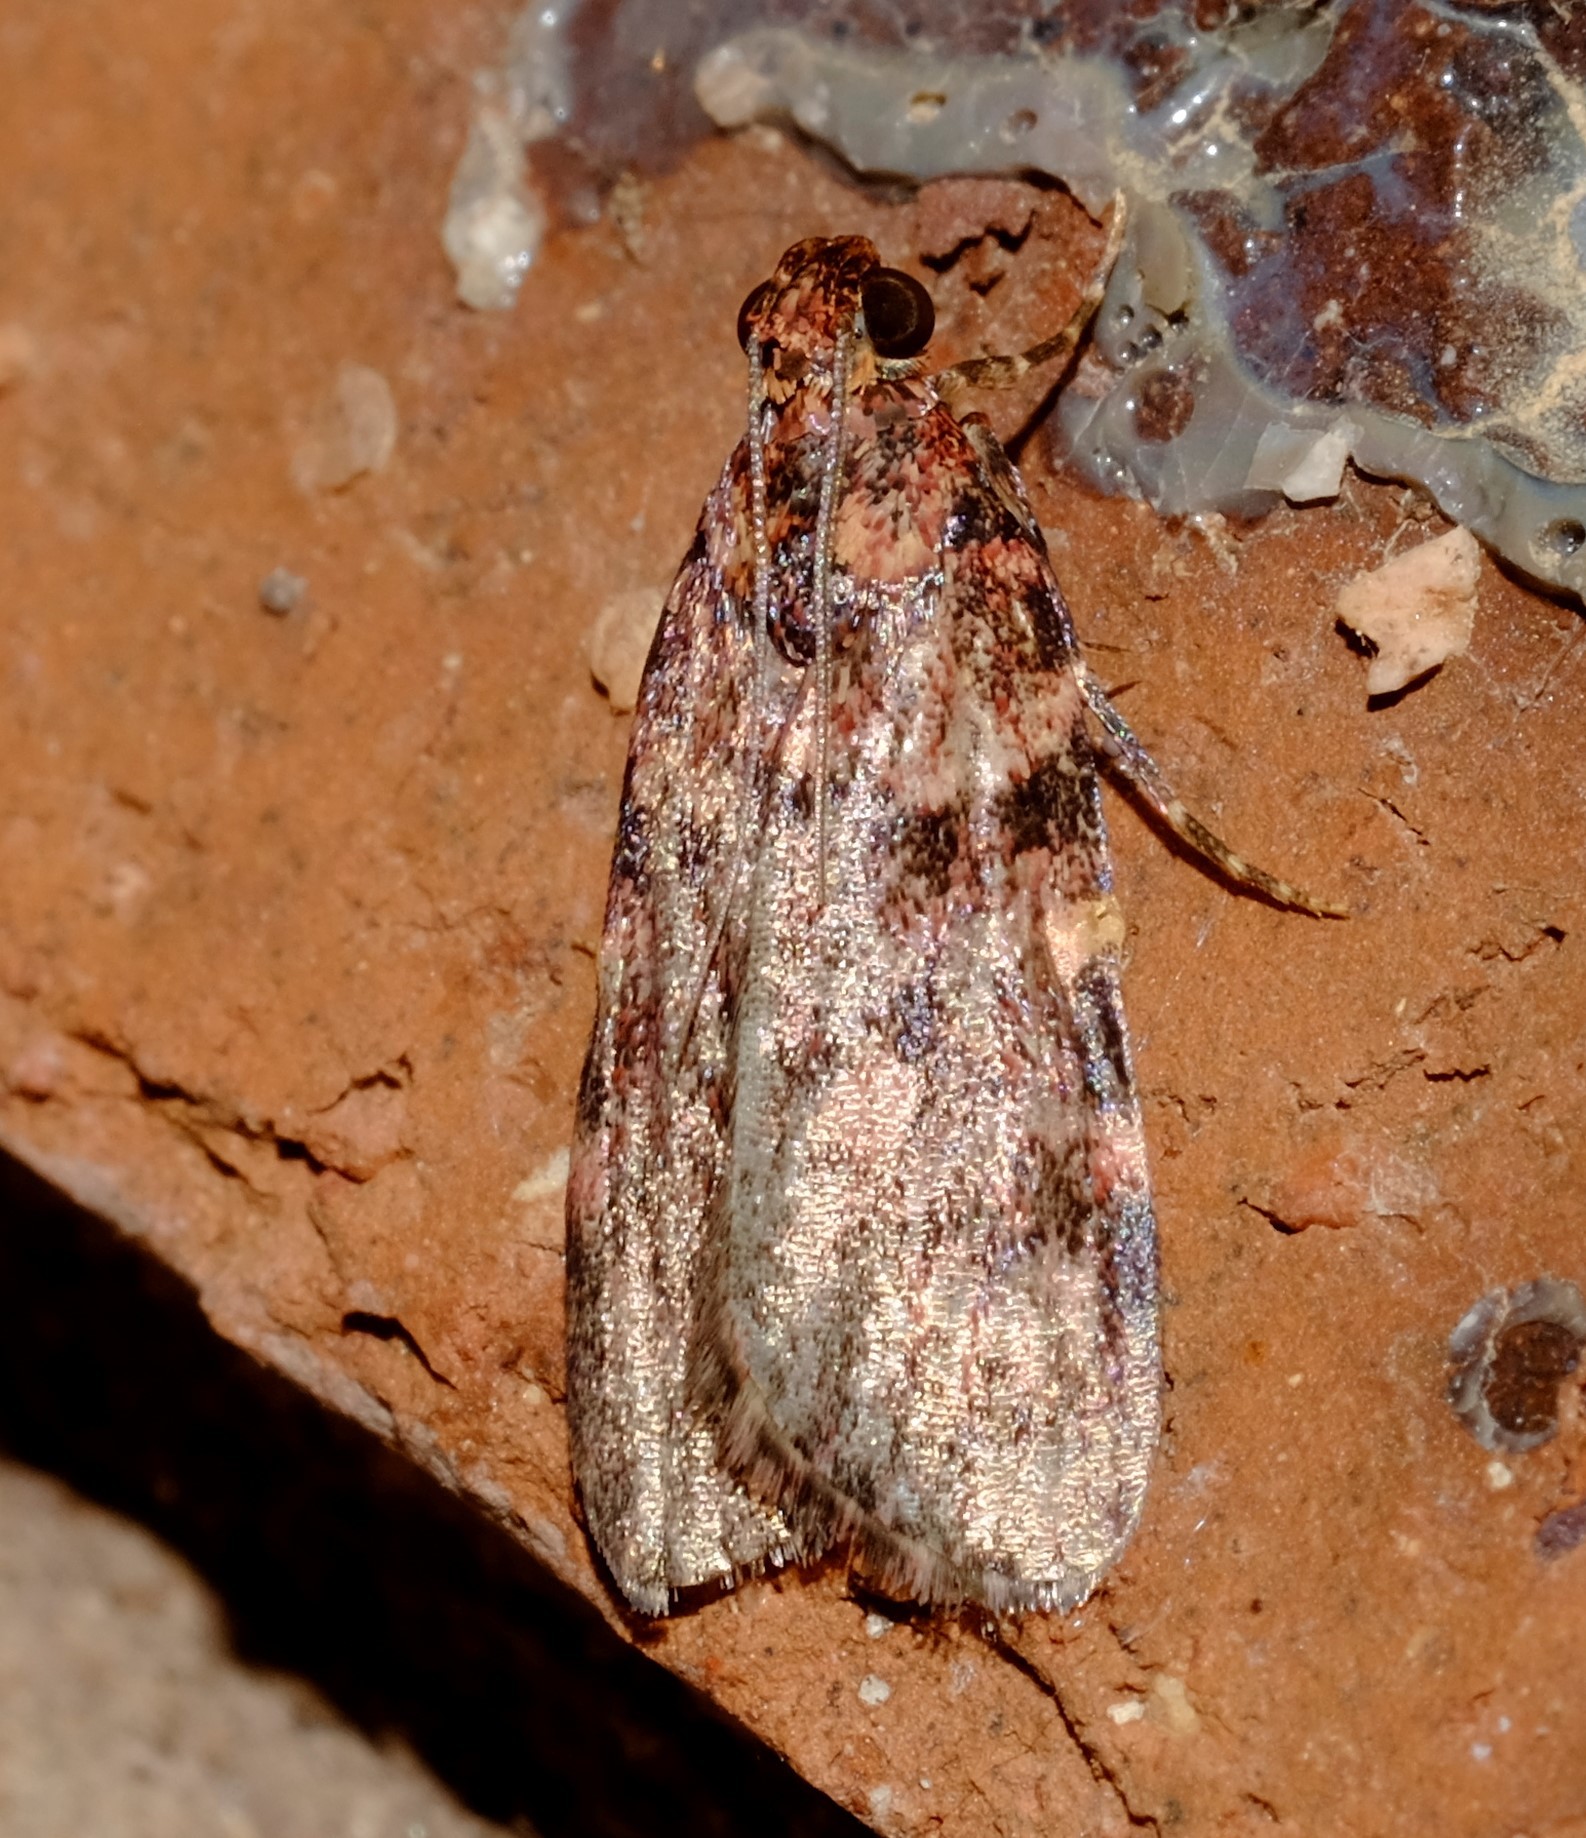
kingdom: Animalia
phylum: Arthropoda
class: Insecta
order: Lepidoptera
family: Pyralidae
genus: Mimaglossa
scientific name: Mimaglossa nauplialis
